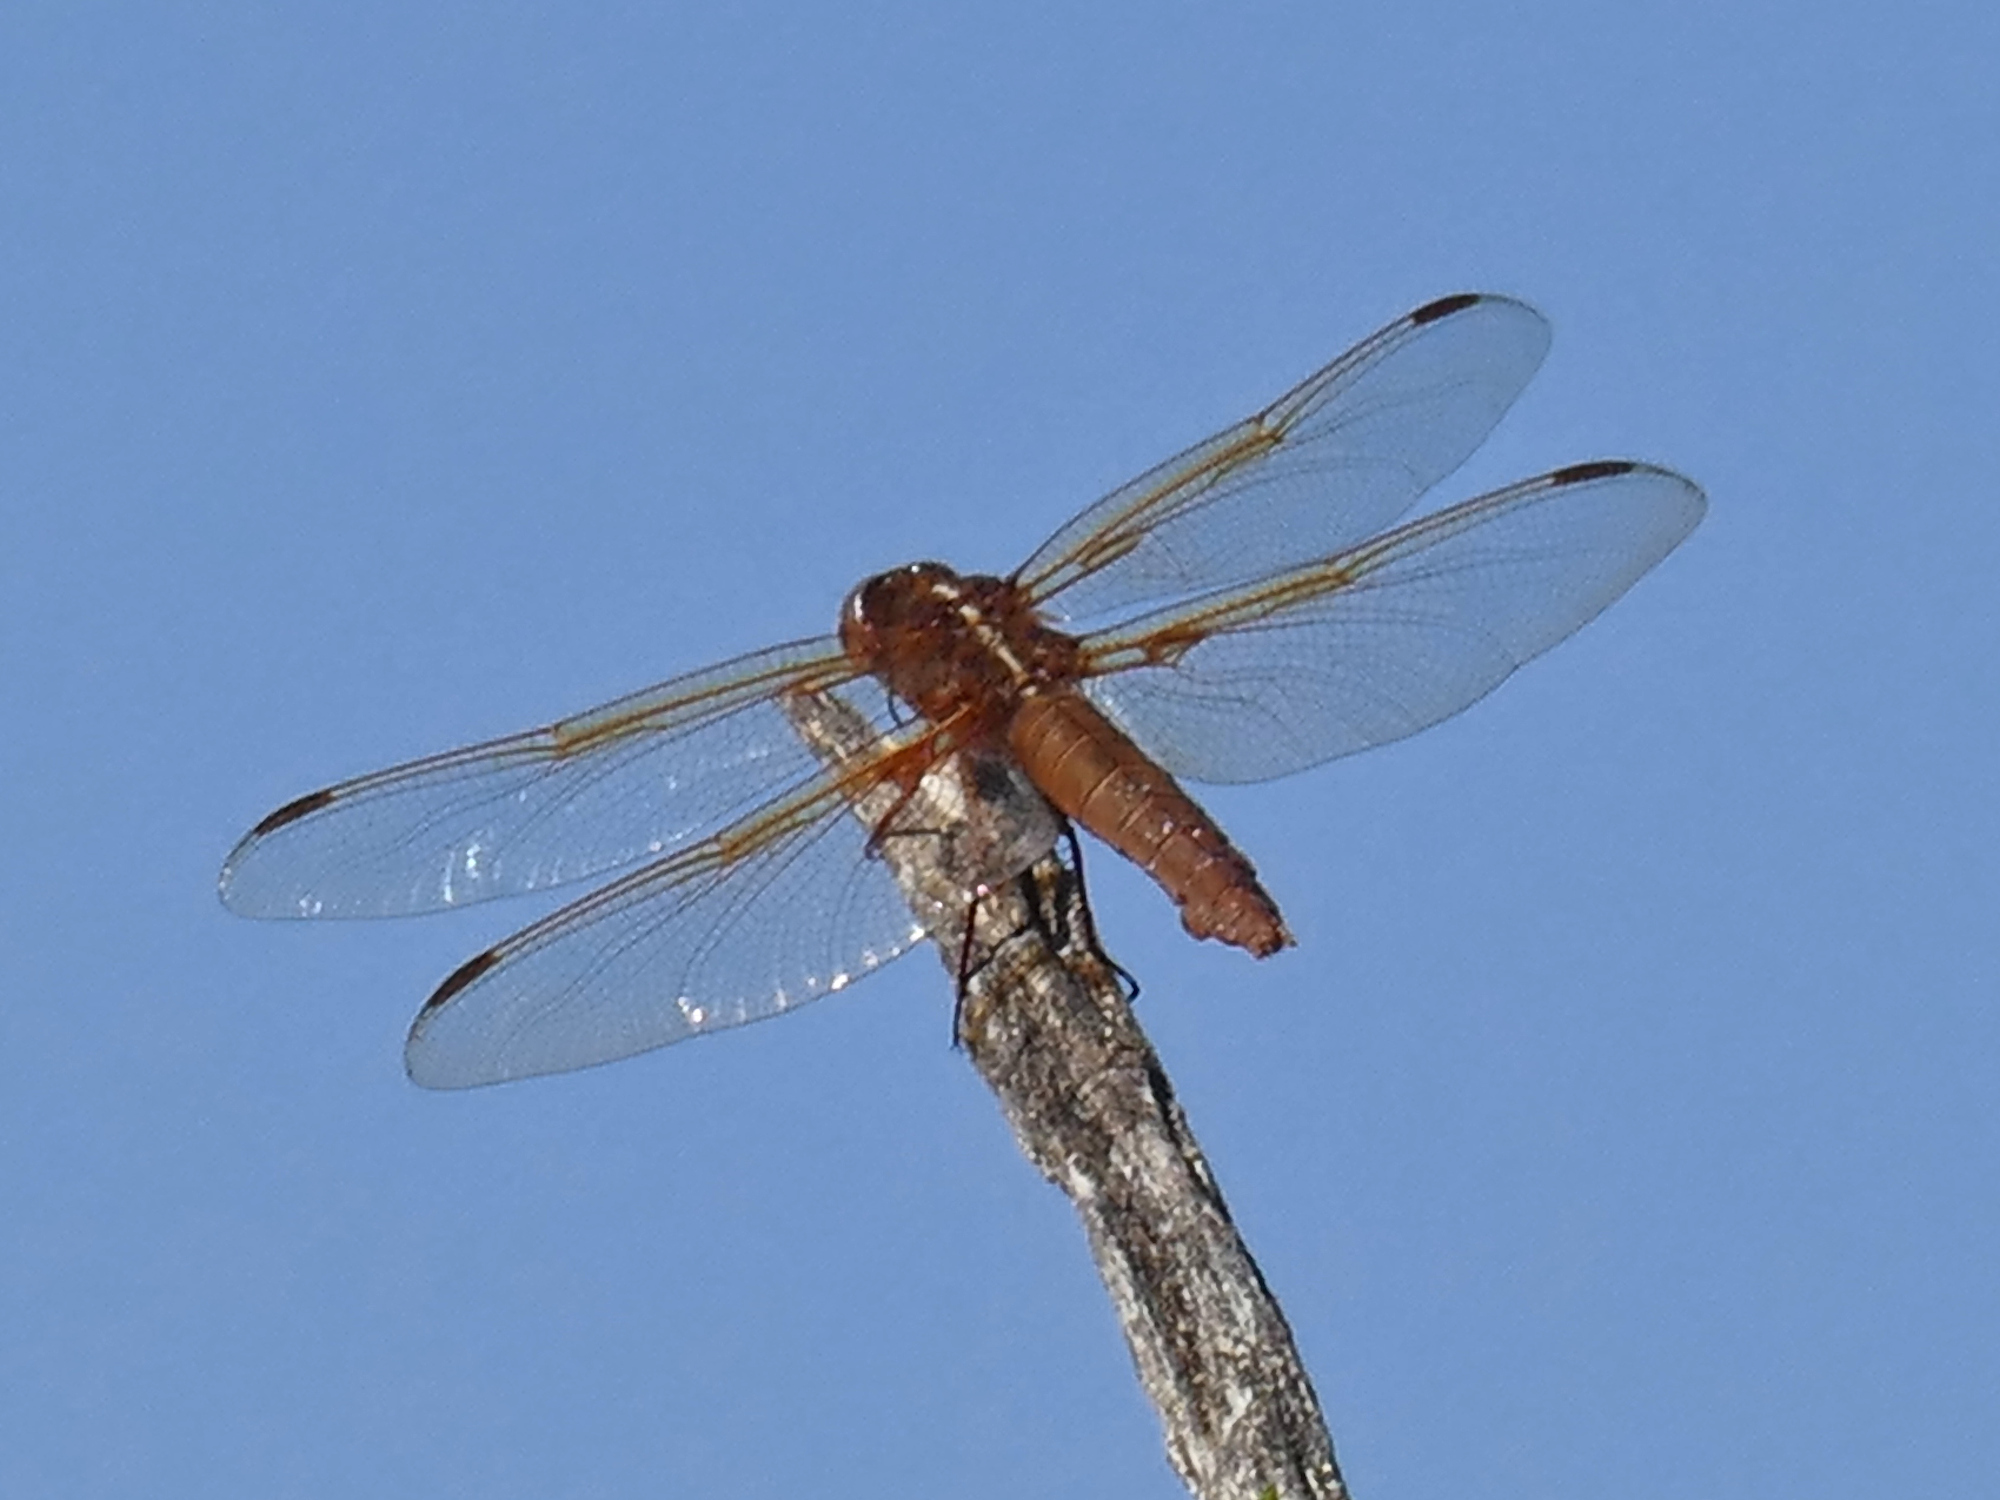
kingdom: Animalia
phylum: Arthropoda
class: Insecta
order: Odonata
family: Libellulidae
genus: Libellula
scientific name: Libellula saturata
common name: Flame skimmer
